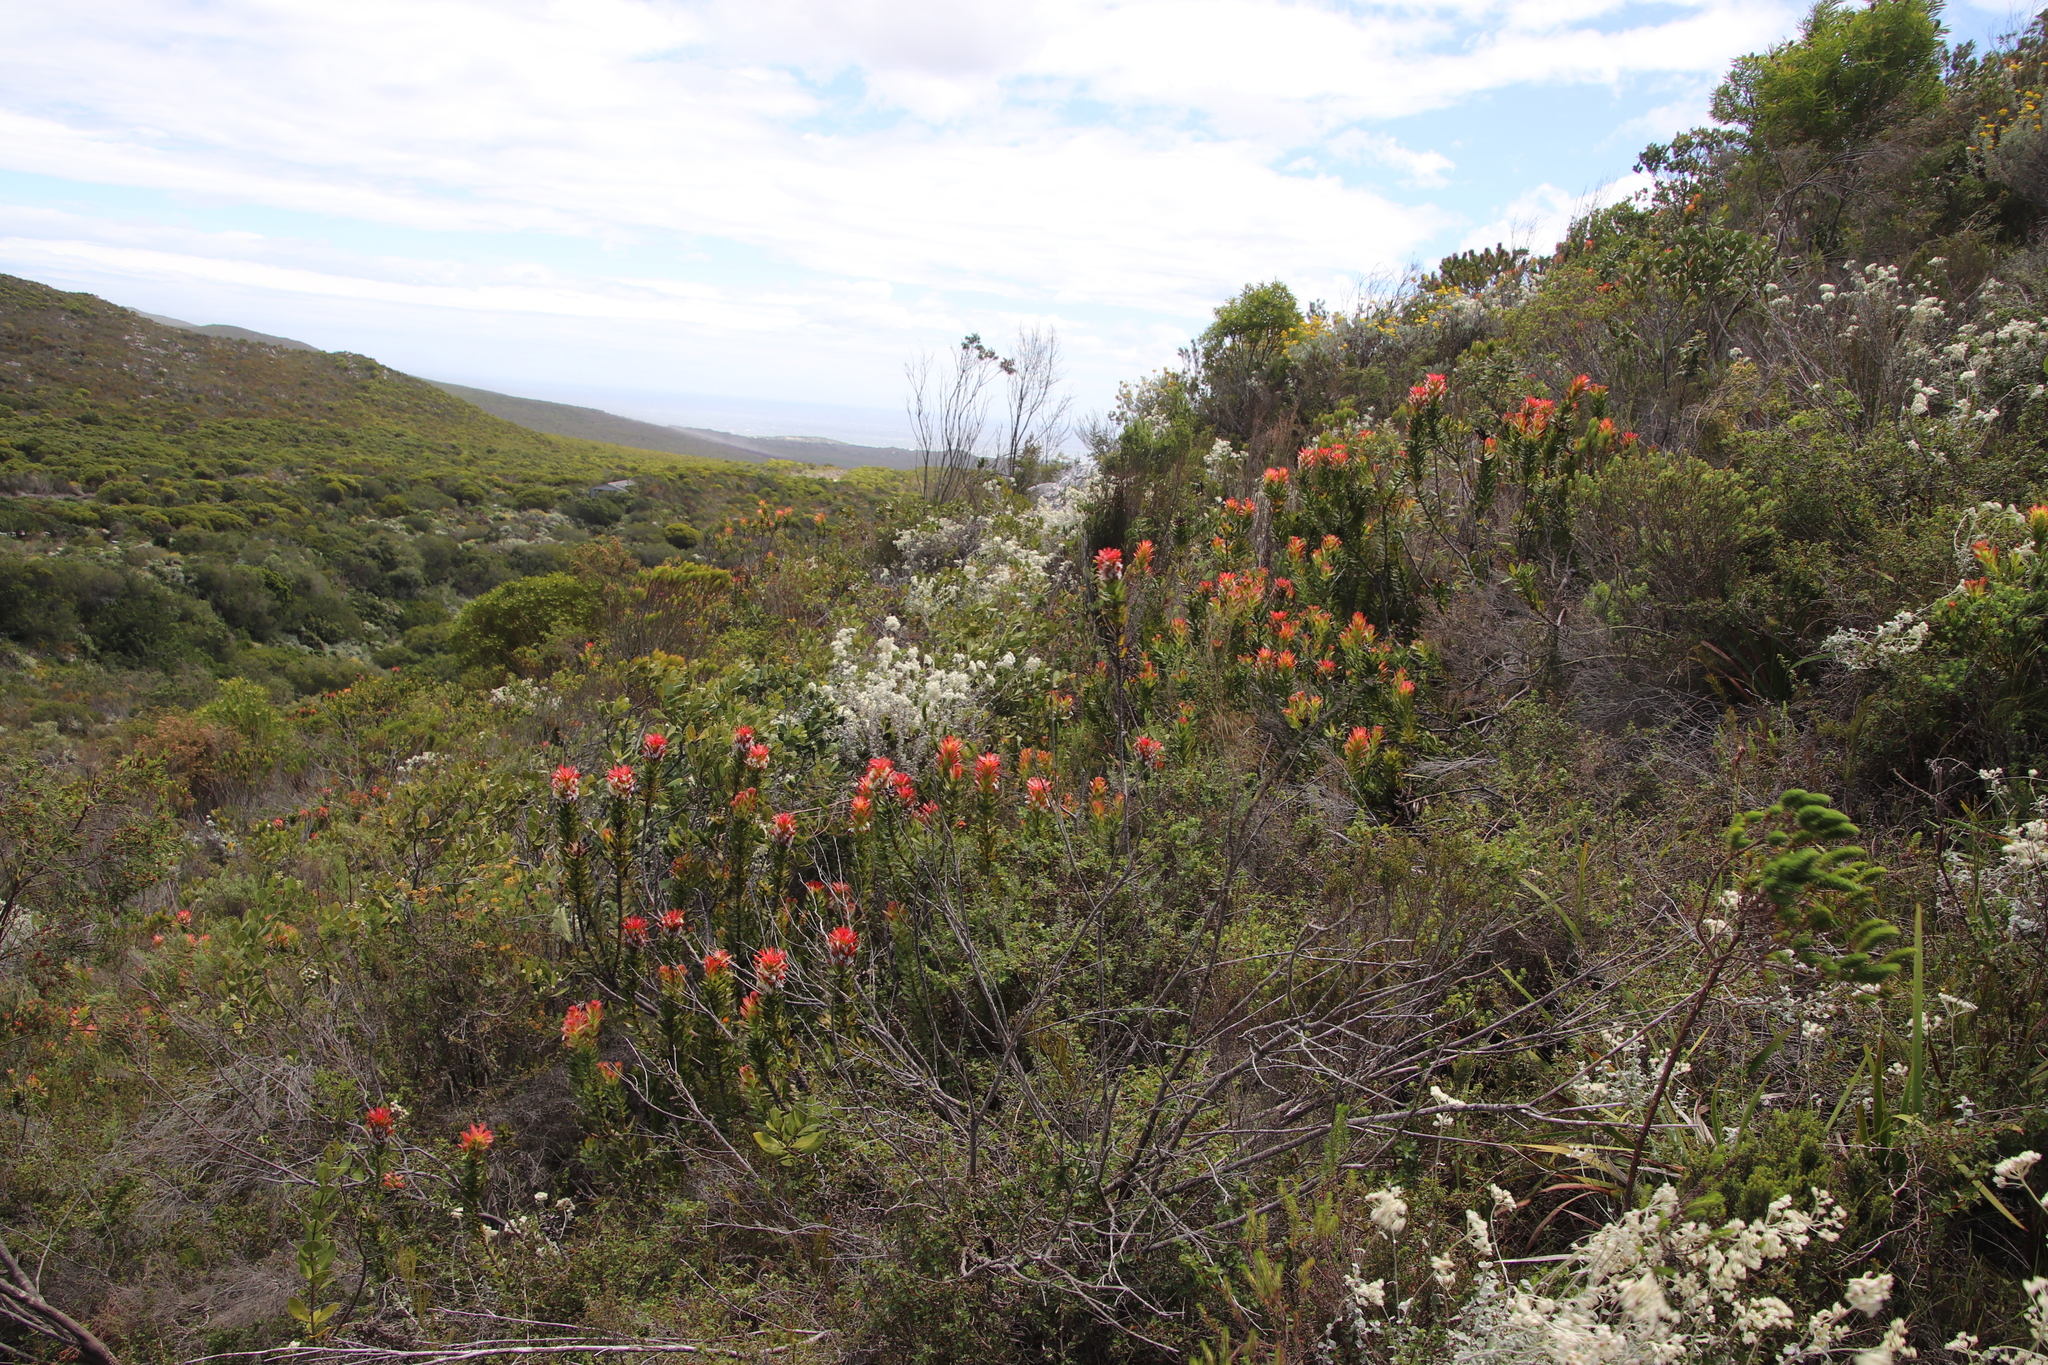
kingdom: Plantae
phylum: Tracheophyta
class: Magnoliopsida
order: Proteales
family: Proteaceae
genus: Mimetes
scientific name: Mimetes cucullatus
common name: Common pagoda
